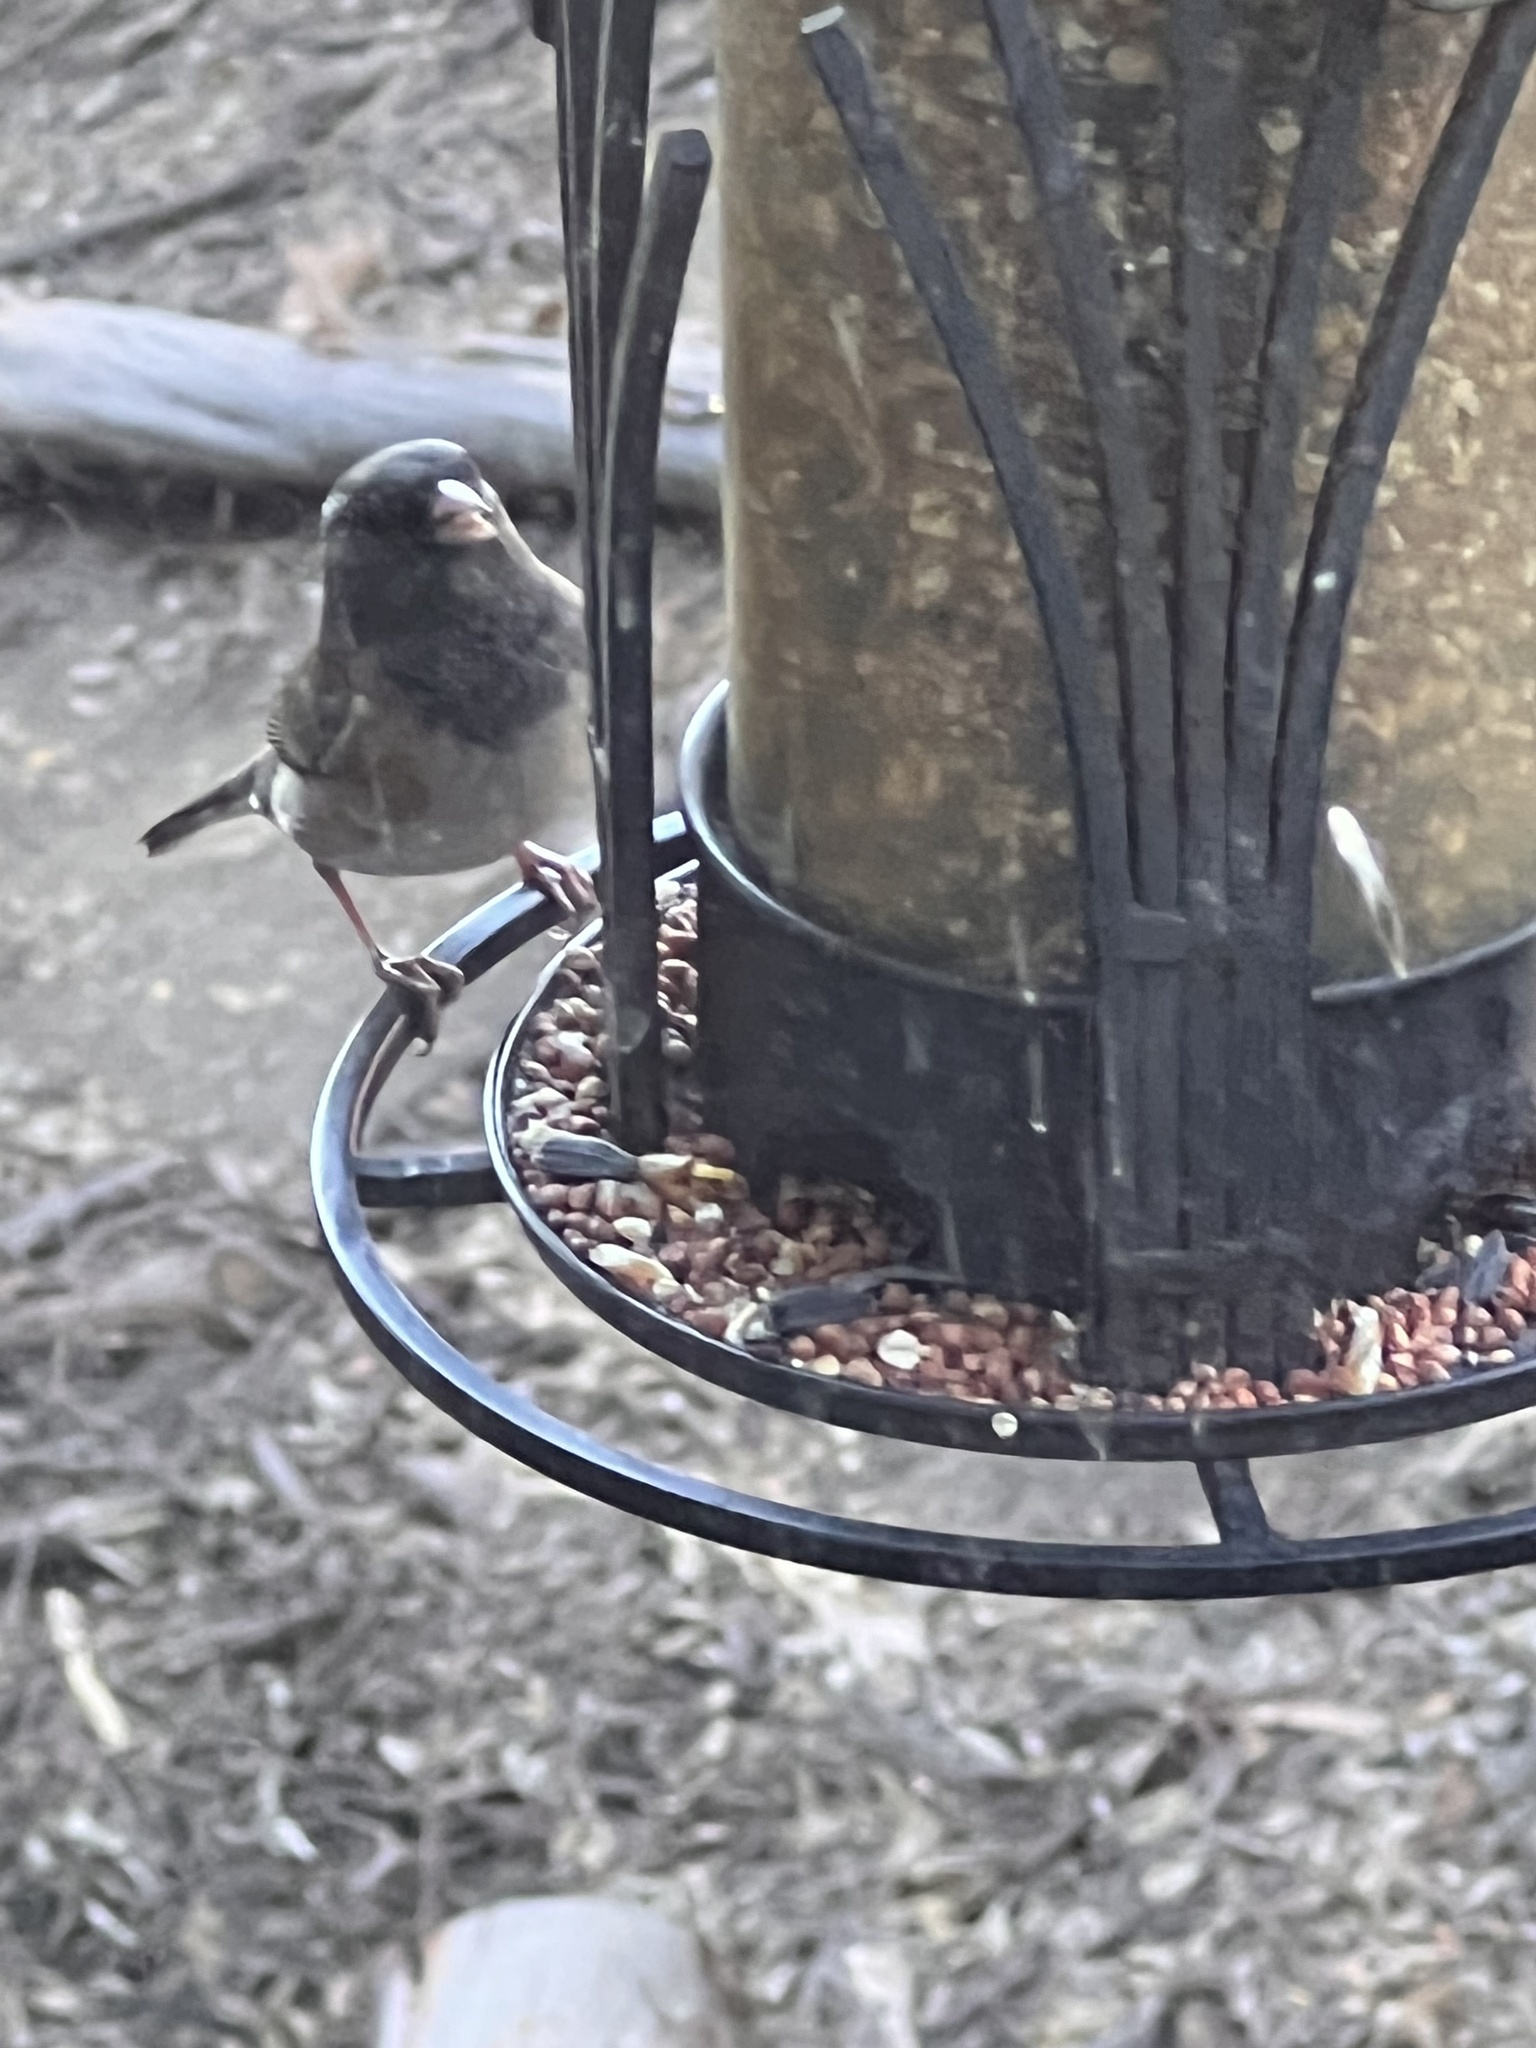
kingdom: Animalia
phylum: Chordata
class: Aves
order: Passeriformes
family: Passerellidae
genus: Junco
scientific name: Junco hyemalis
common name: Dark-eyed junco
